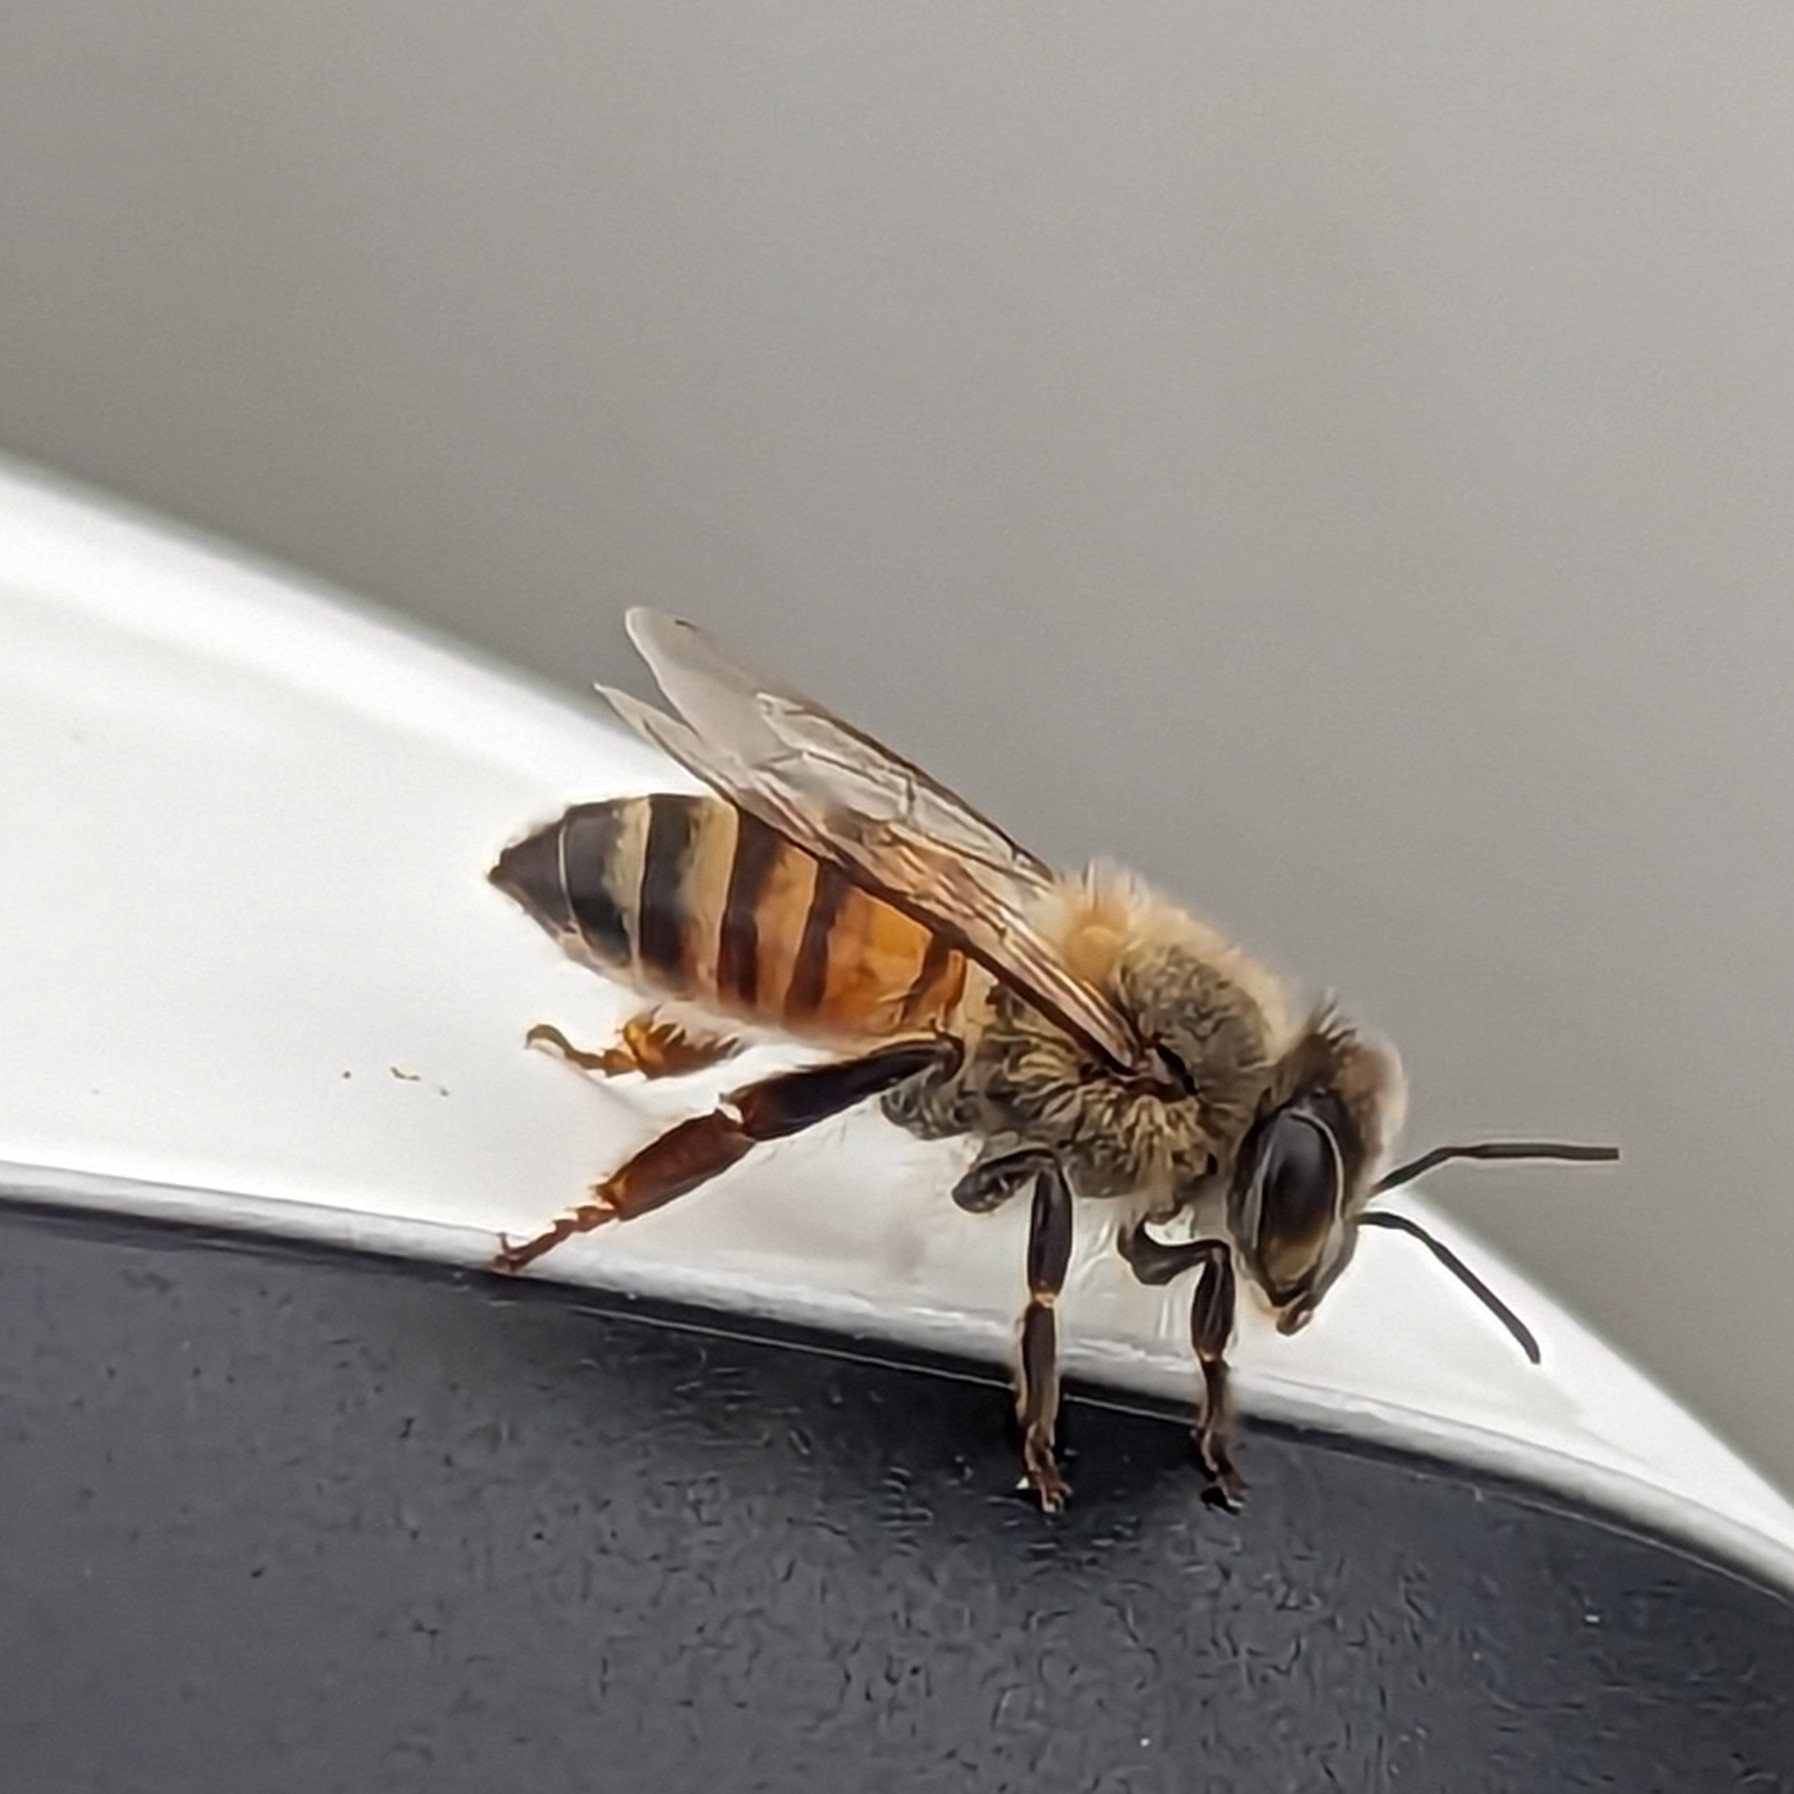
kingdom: Animalia
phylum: Arthropoda
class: Insecta
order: Hymenoptera
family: Apidae
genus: Apis
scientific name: Apis mellifera
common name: Honey bee
